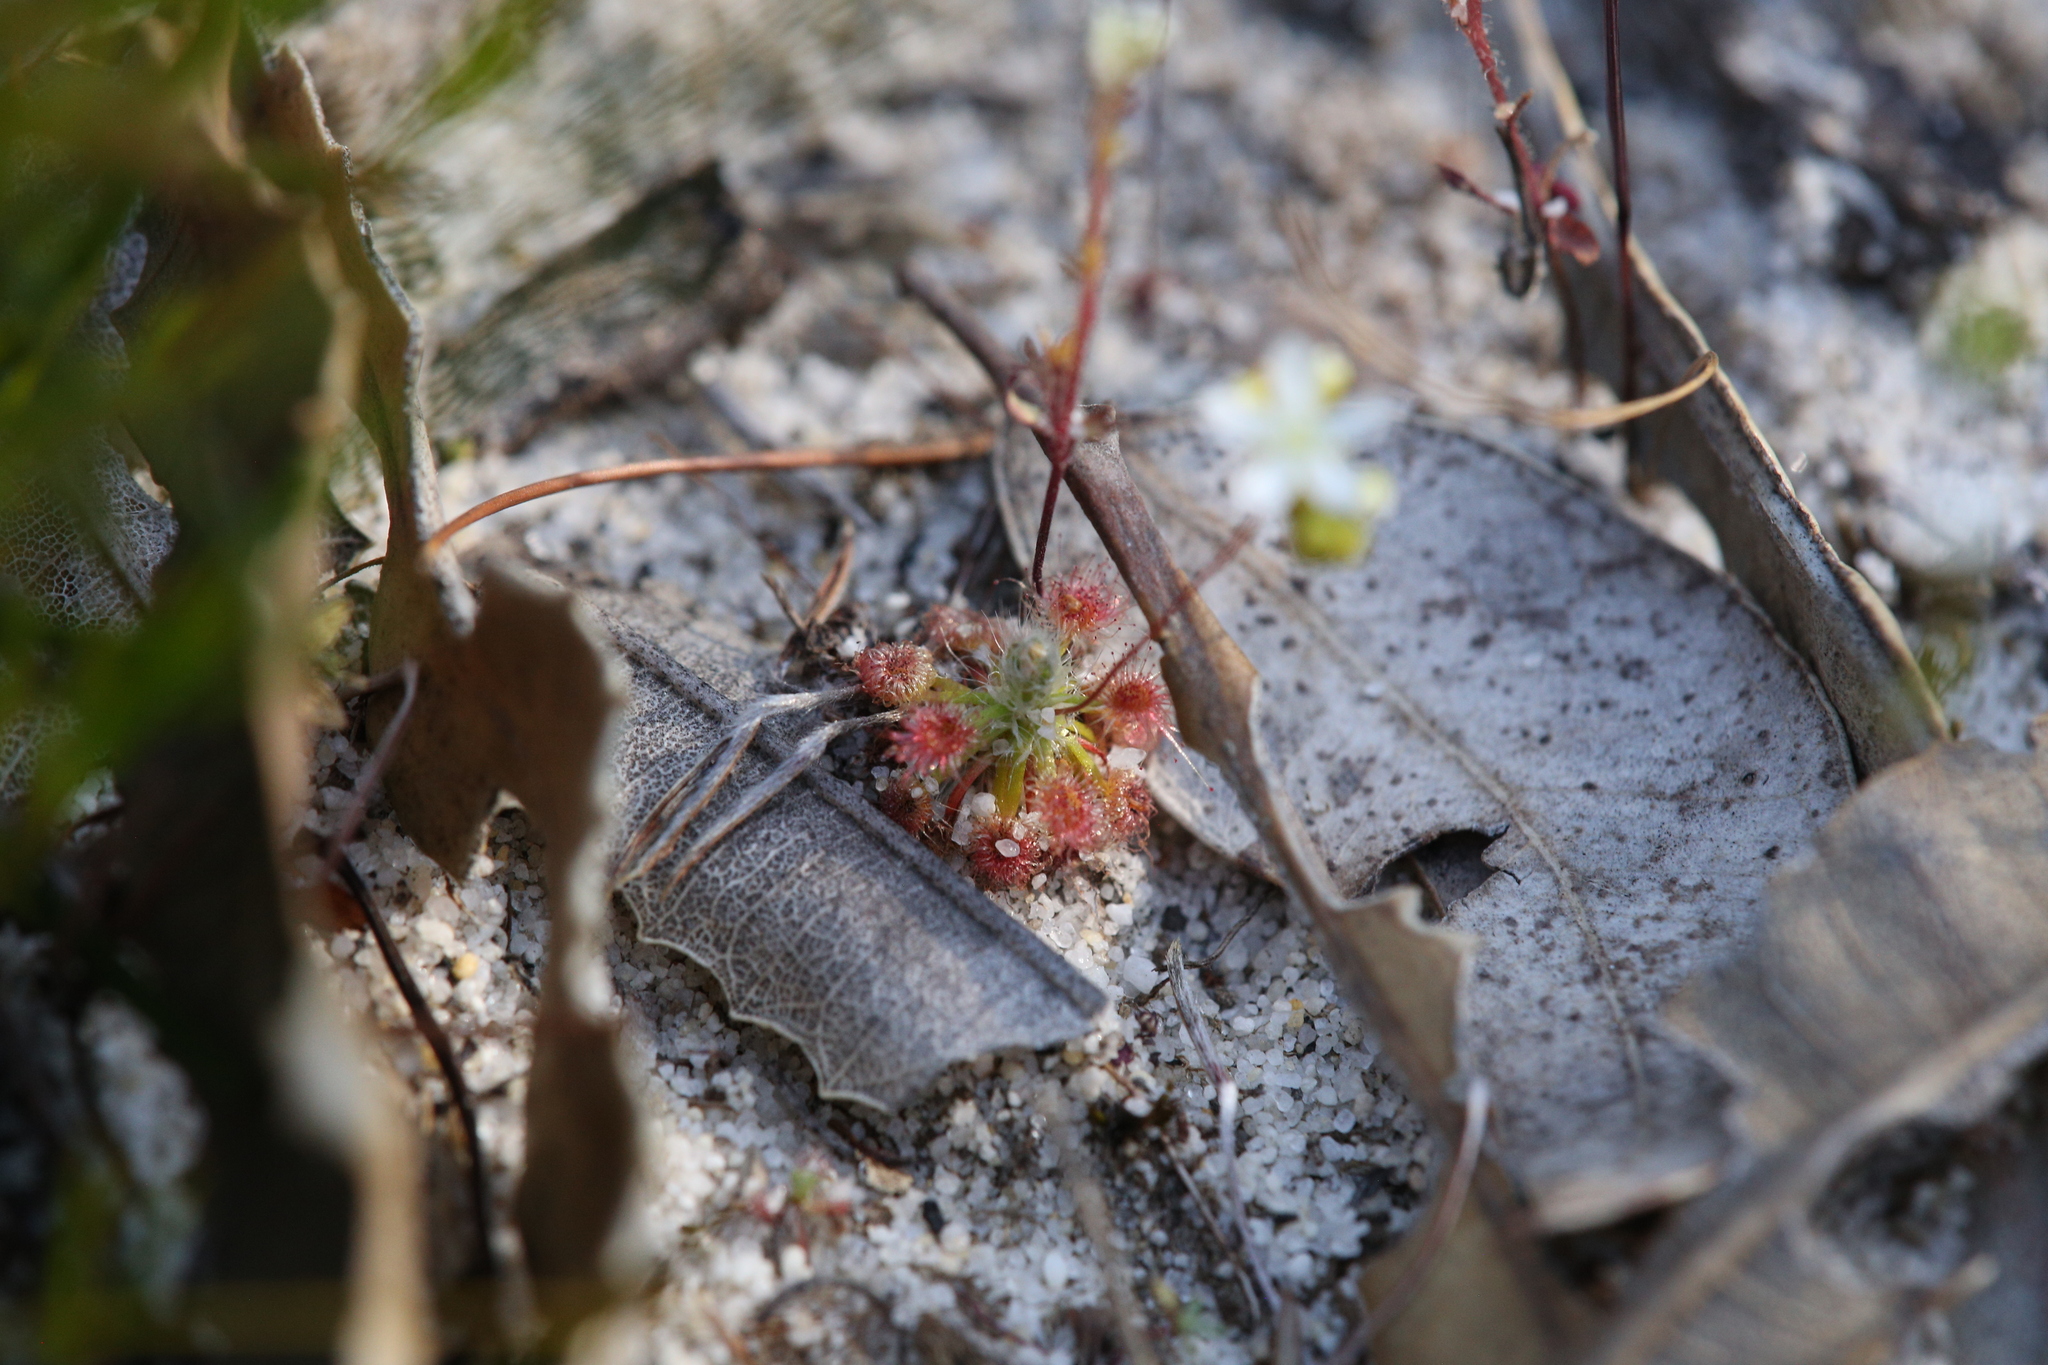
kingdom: Plantae
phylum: Tracheophyta
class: Magnoliopsida
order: Caryophyllales
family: Droseraceae
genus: Drosera
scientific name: Drosera paleacea
